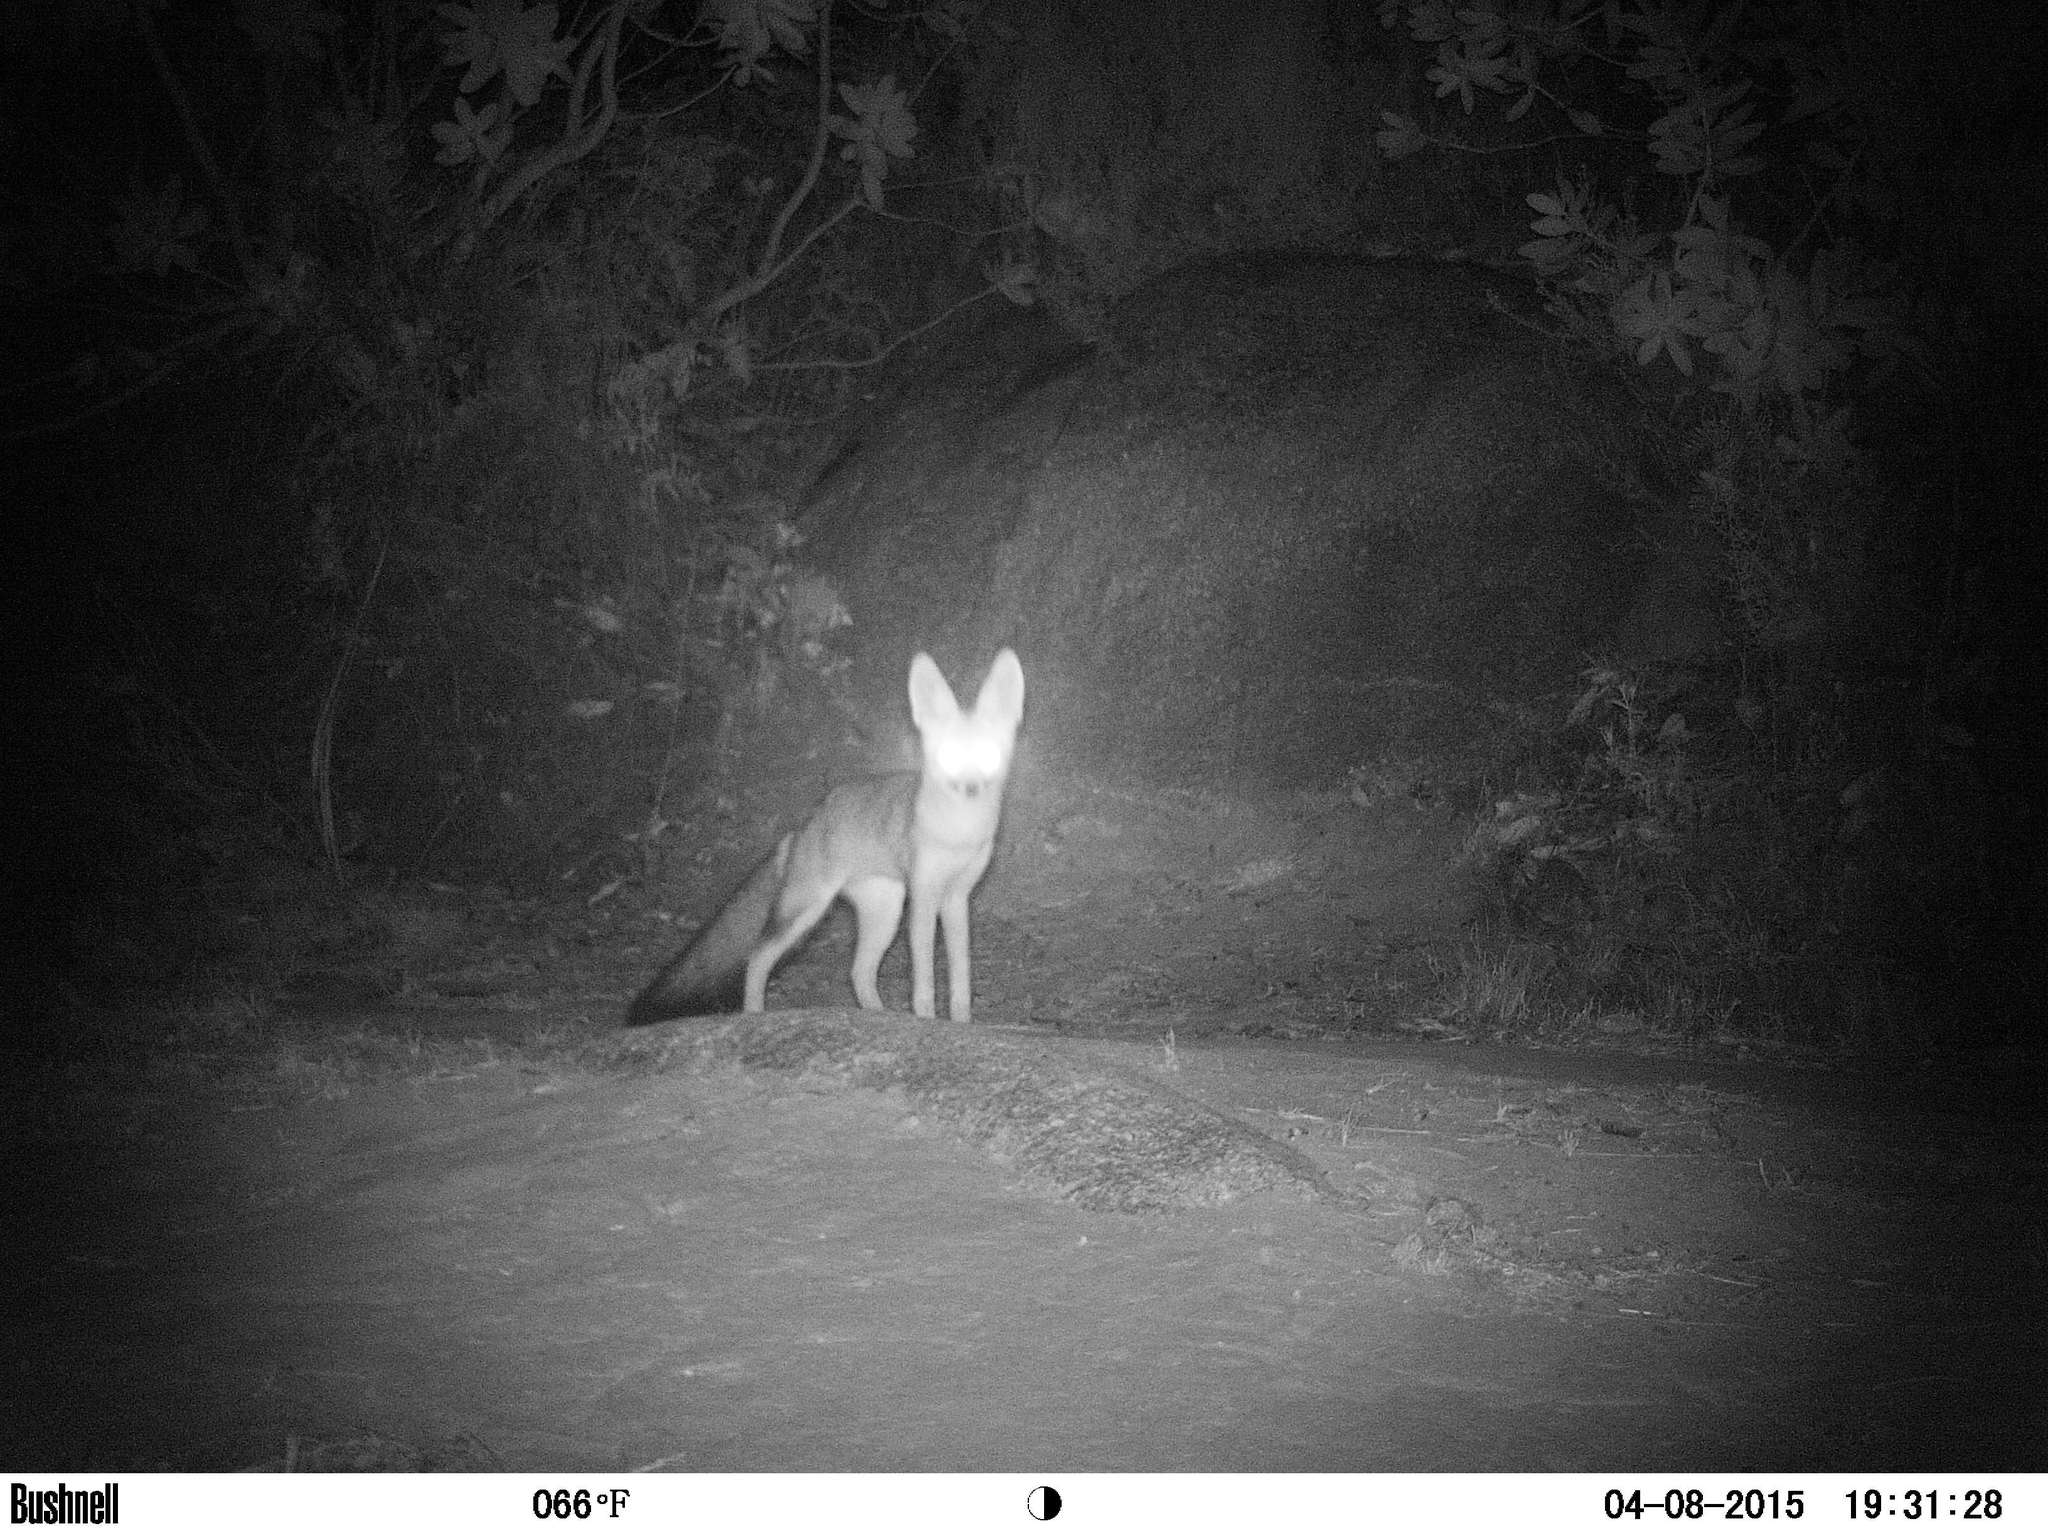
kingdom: Animalia
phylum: Chordata
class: Mammalia
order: Carnivora
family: Canidae
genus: Vulpes
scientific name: Vulpes chama
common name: Cape fox
